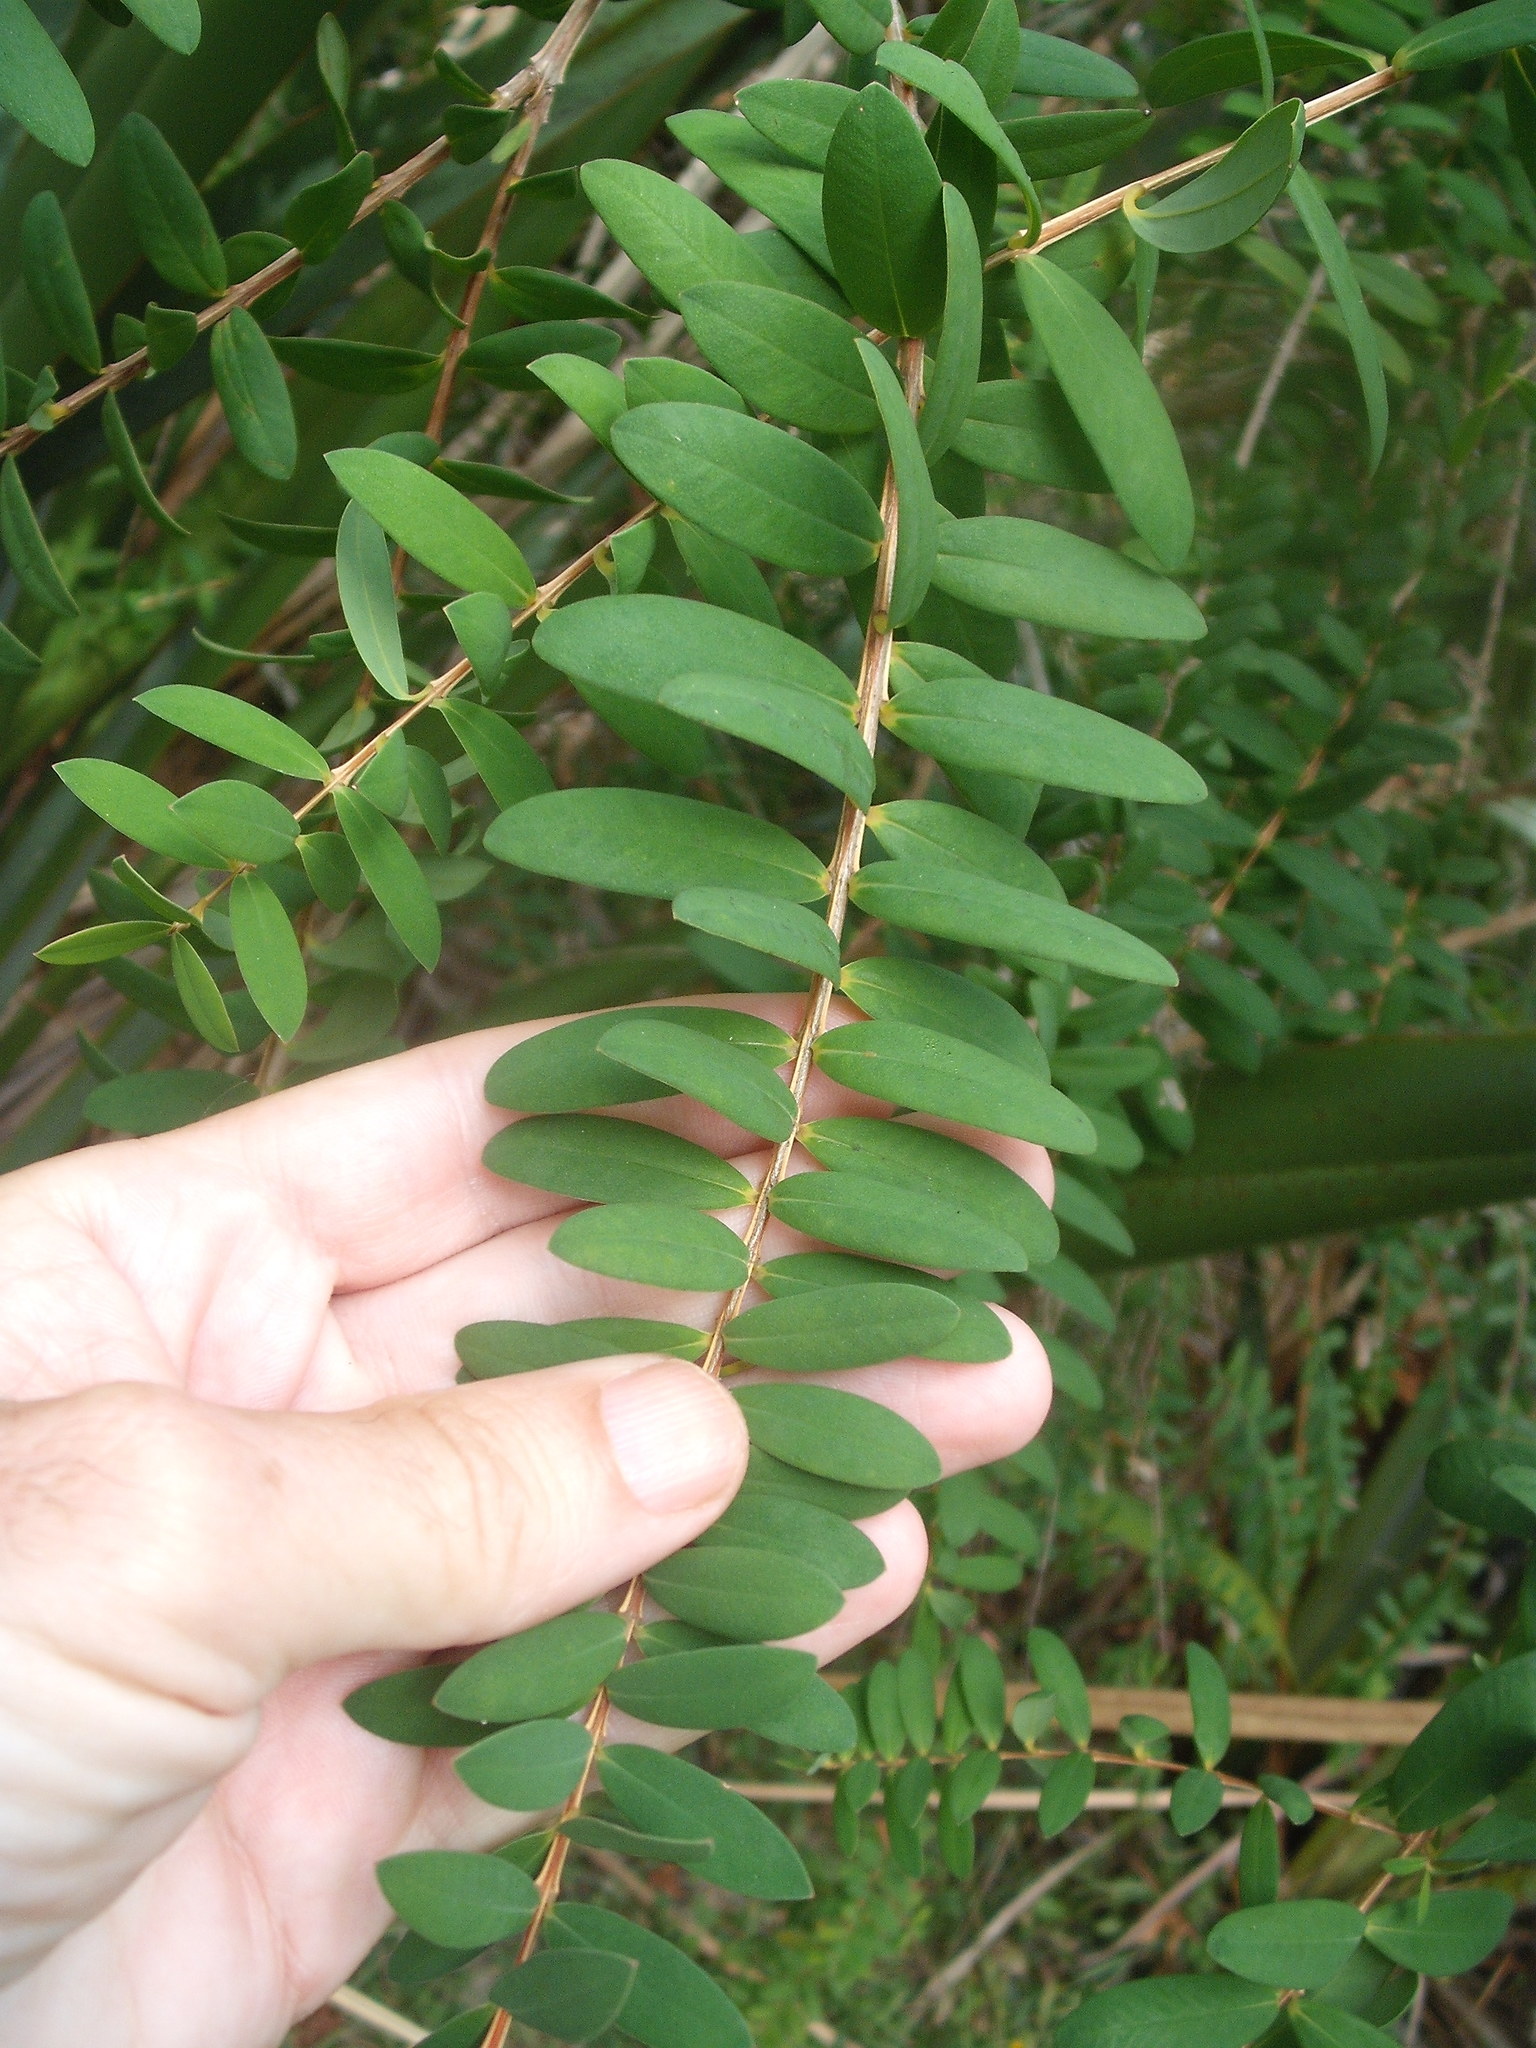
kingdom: Plantae
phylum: Tracheophyta
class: Magnoliopsida
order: Myrtales
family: Myrtaceae
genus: Melaleuca
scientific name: Melaleuca hypericifolia
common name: Red honey myrtle
